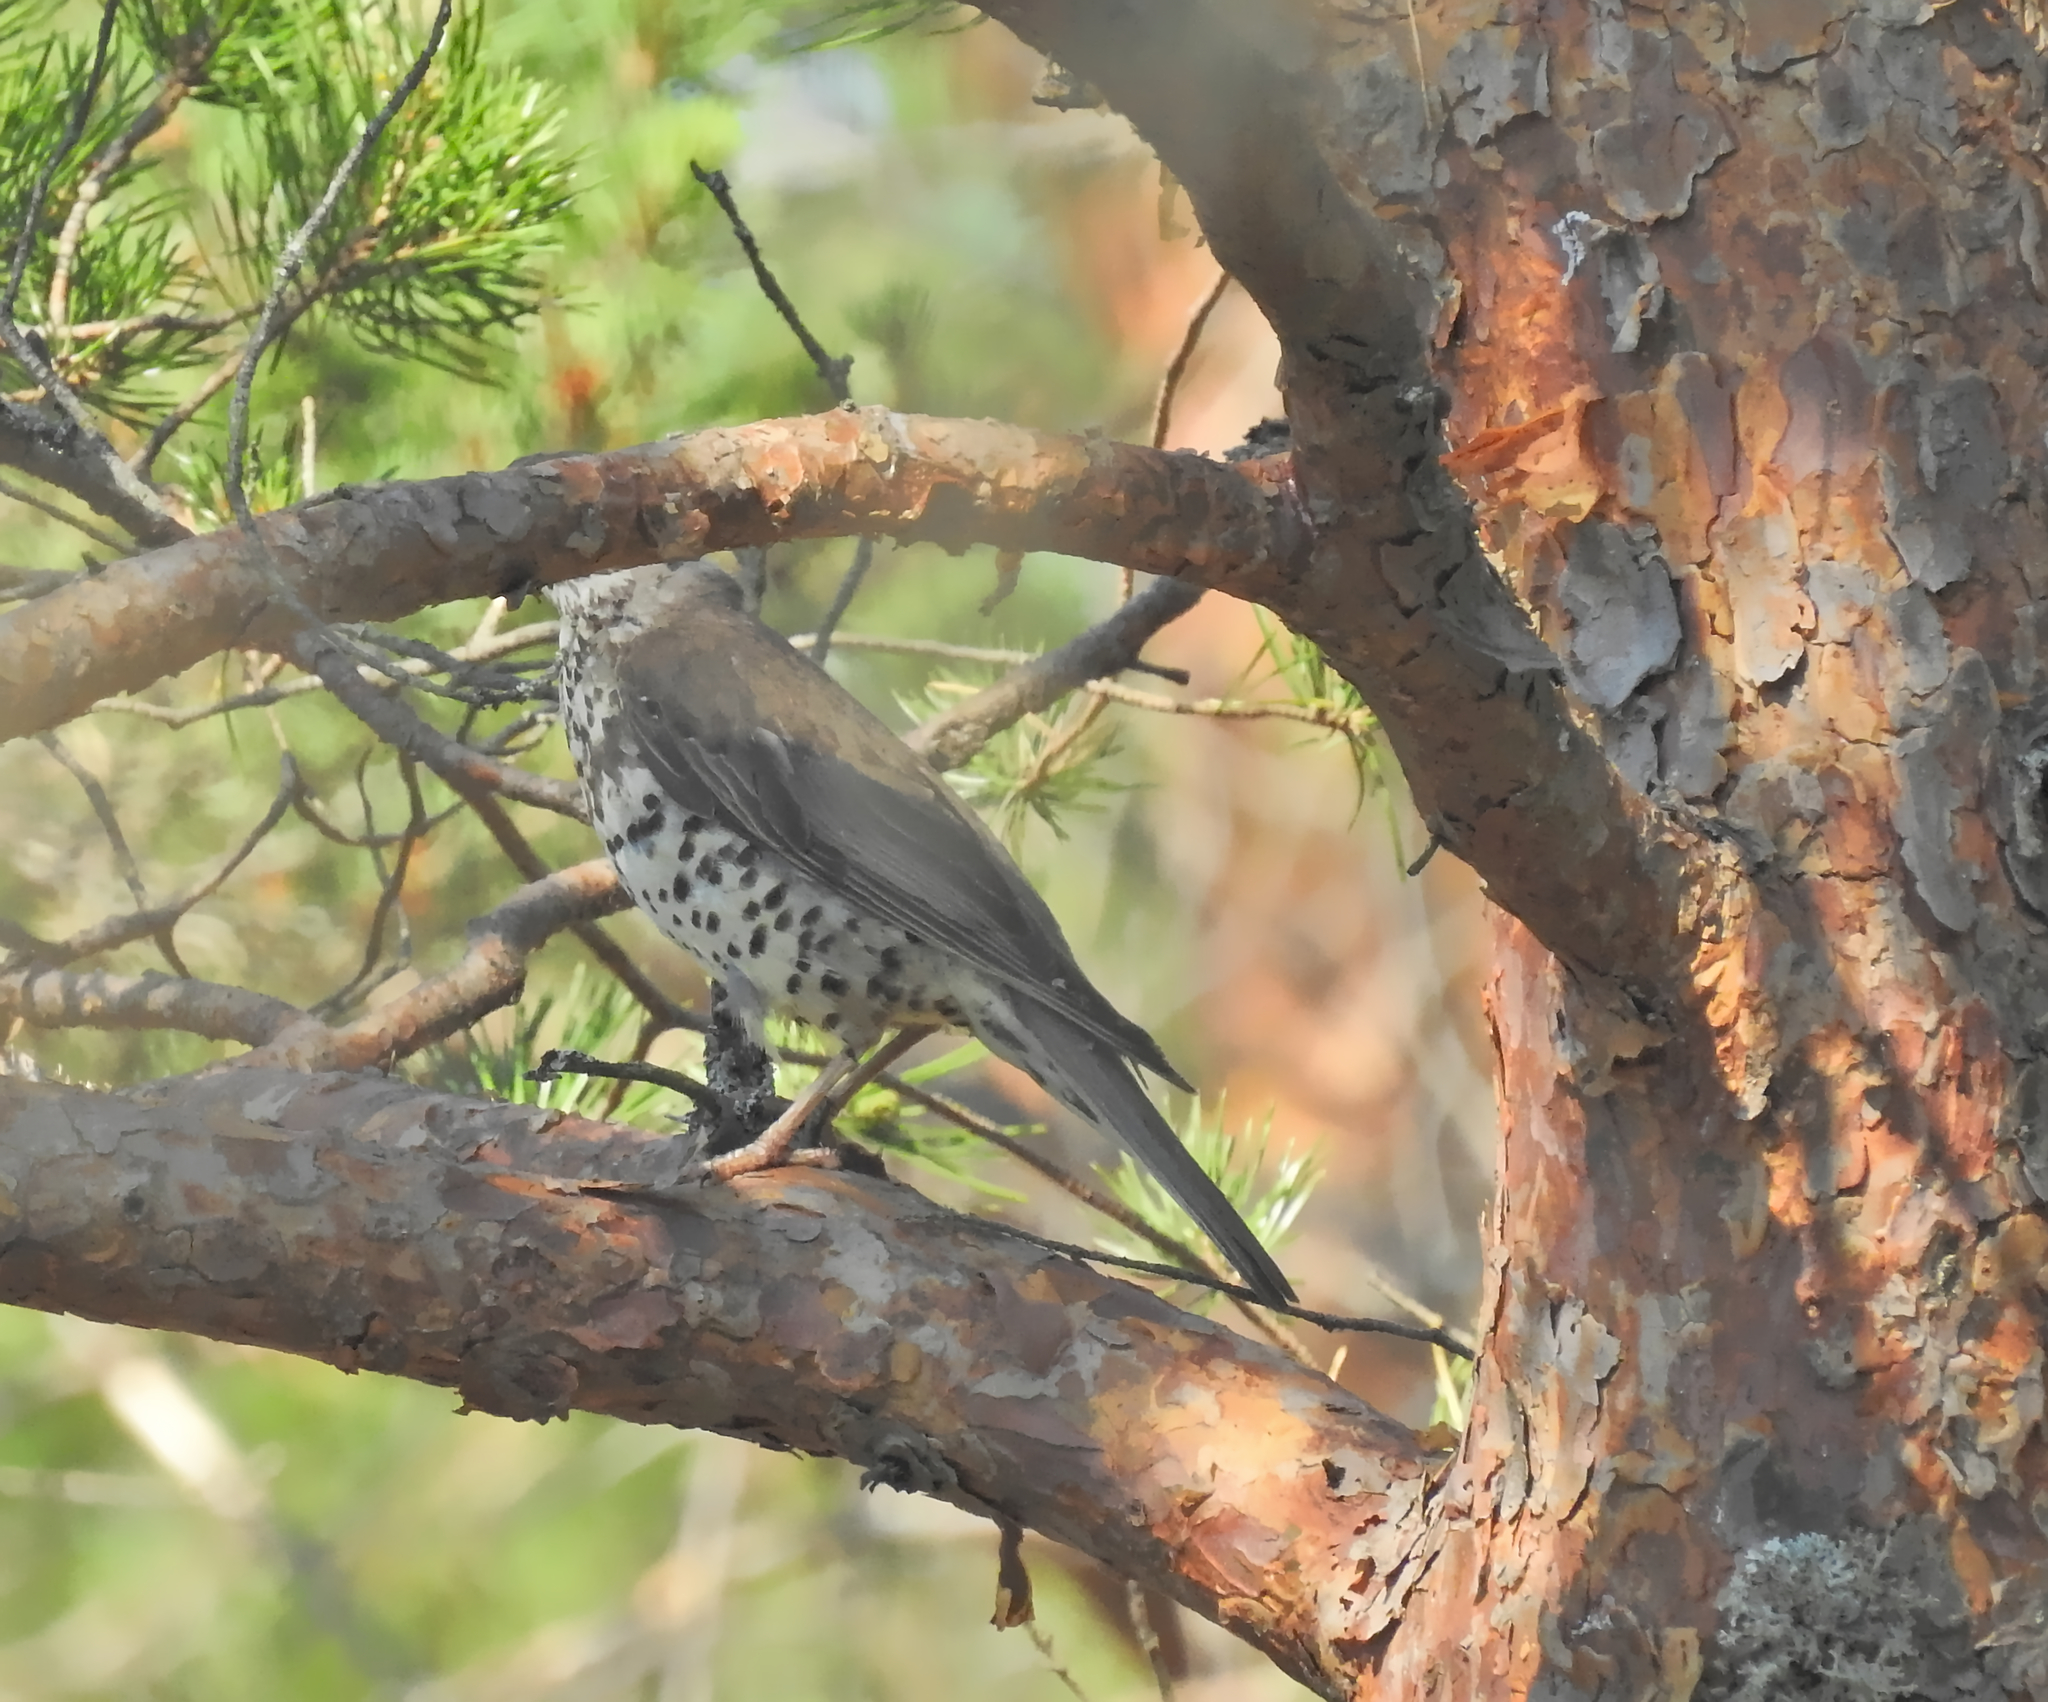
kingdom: Animalia
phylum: Chordata
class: Aves
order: Passeriformes
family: Turdidae
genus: Turdus
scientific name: Turdus viscivorus
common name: Mistle thrush
